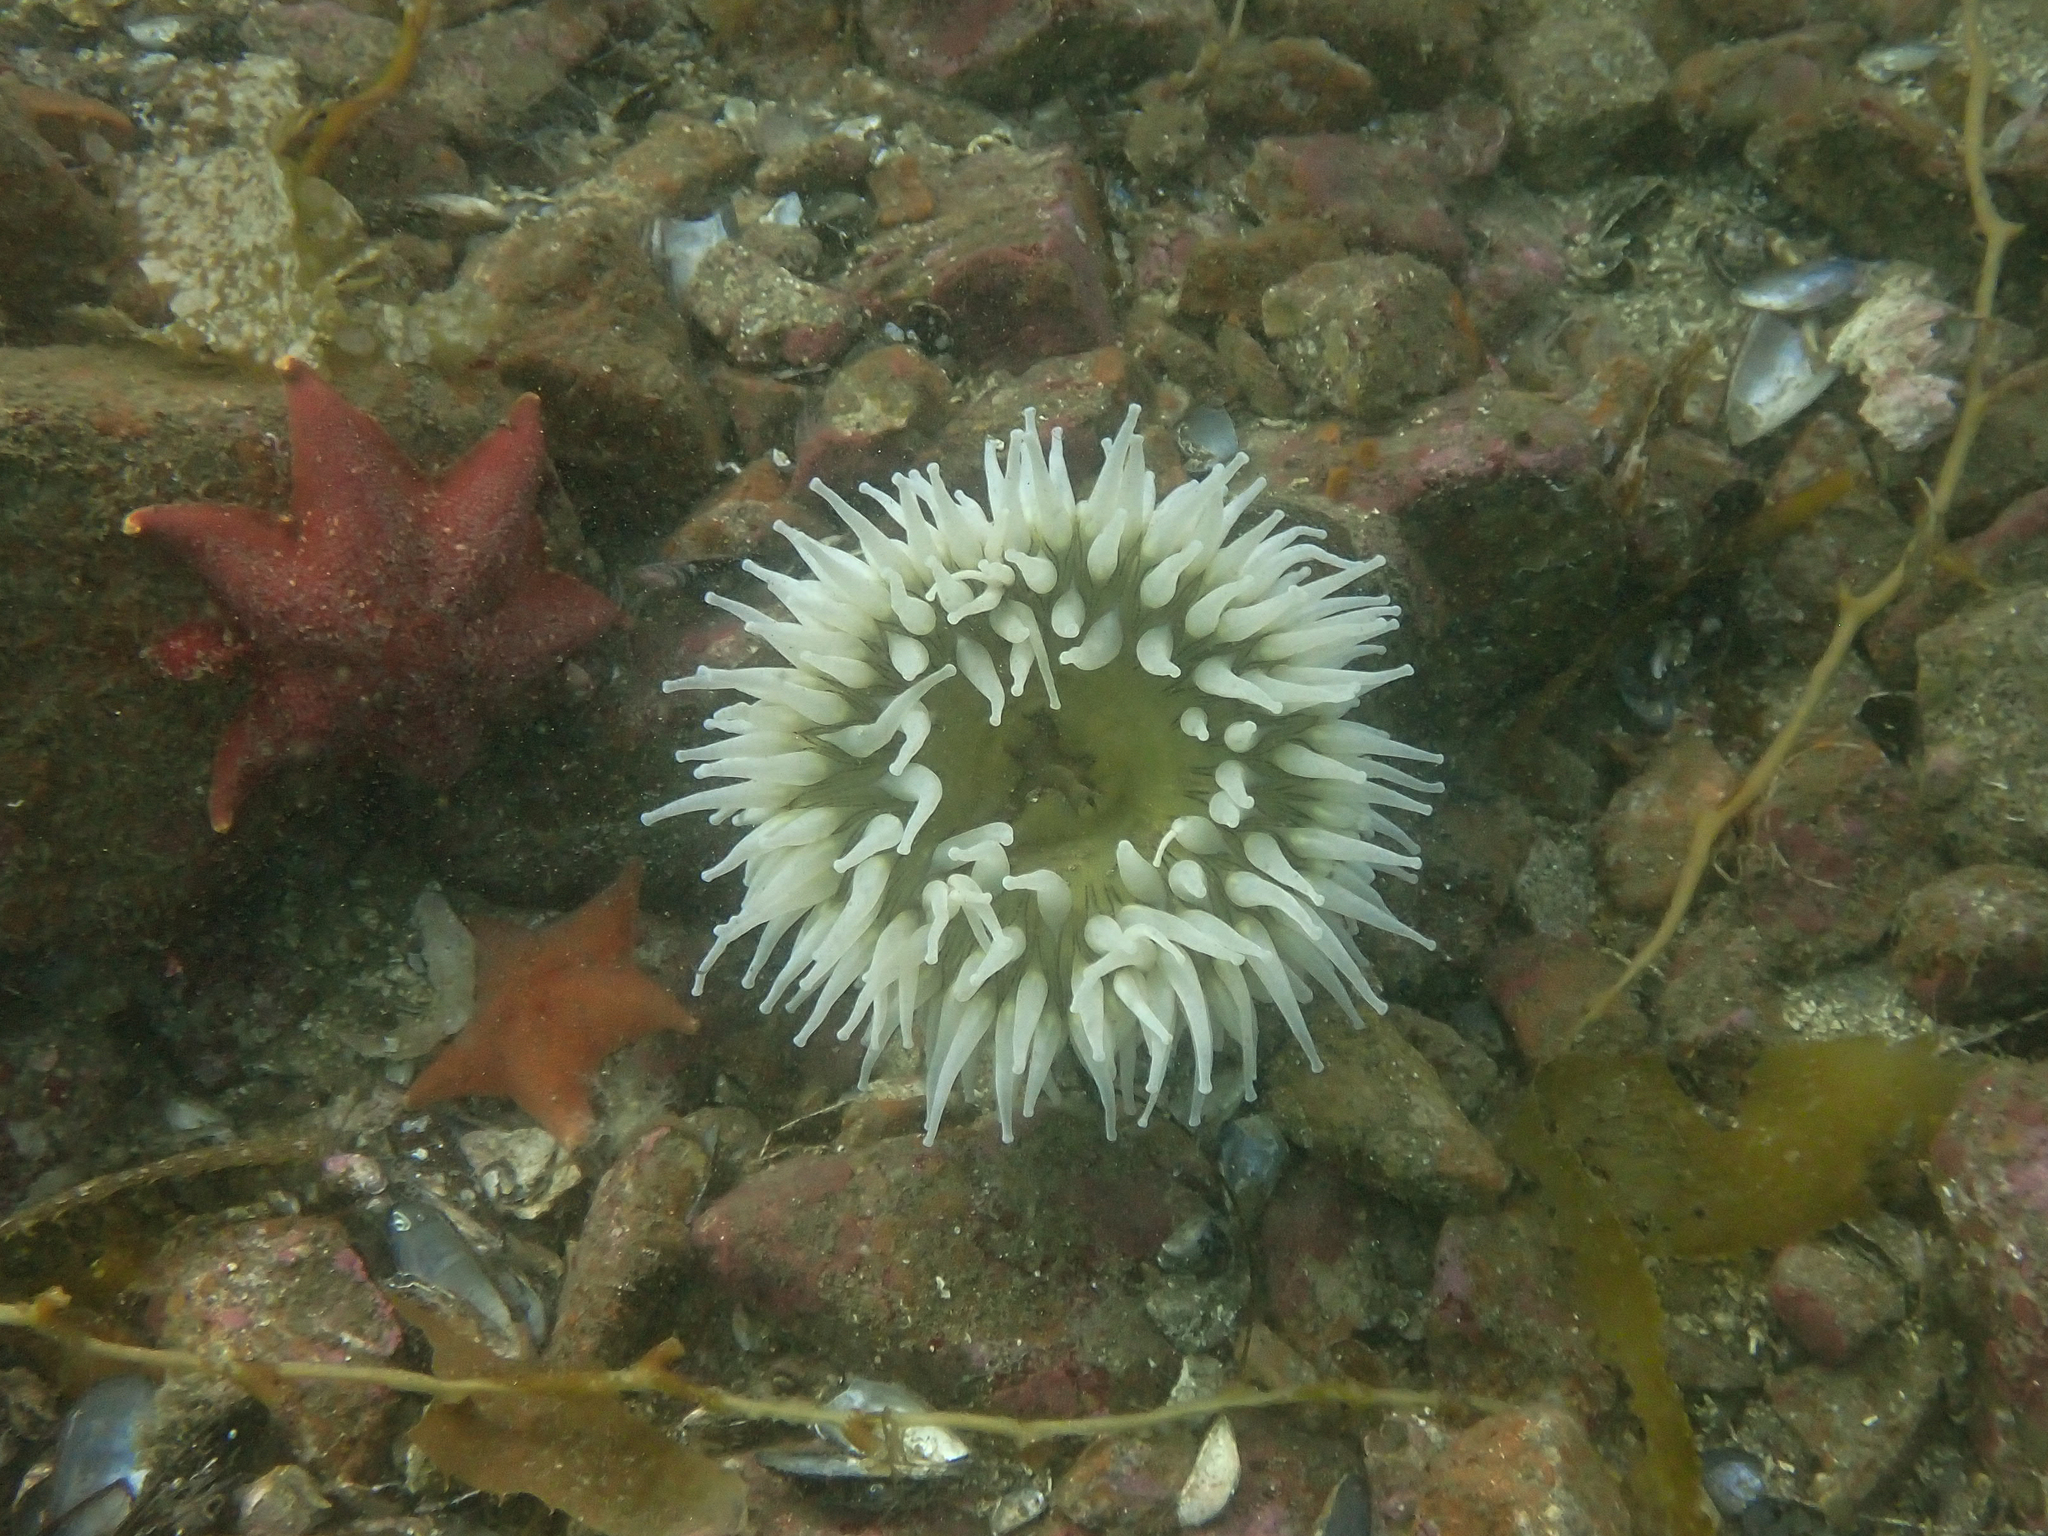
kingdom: Animalia
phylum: Cnidaria
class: Anthozoa
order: Actiniaria
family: Actiniidae
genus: Urticina
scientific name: Urticina piscivora
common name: Velvety red anemone
